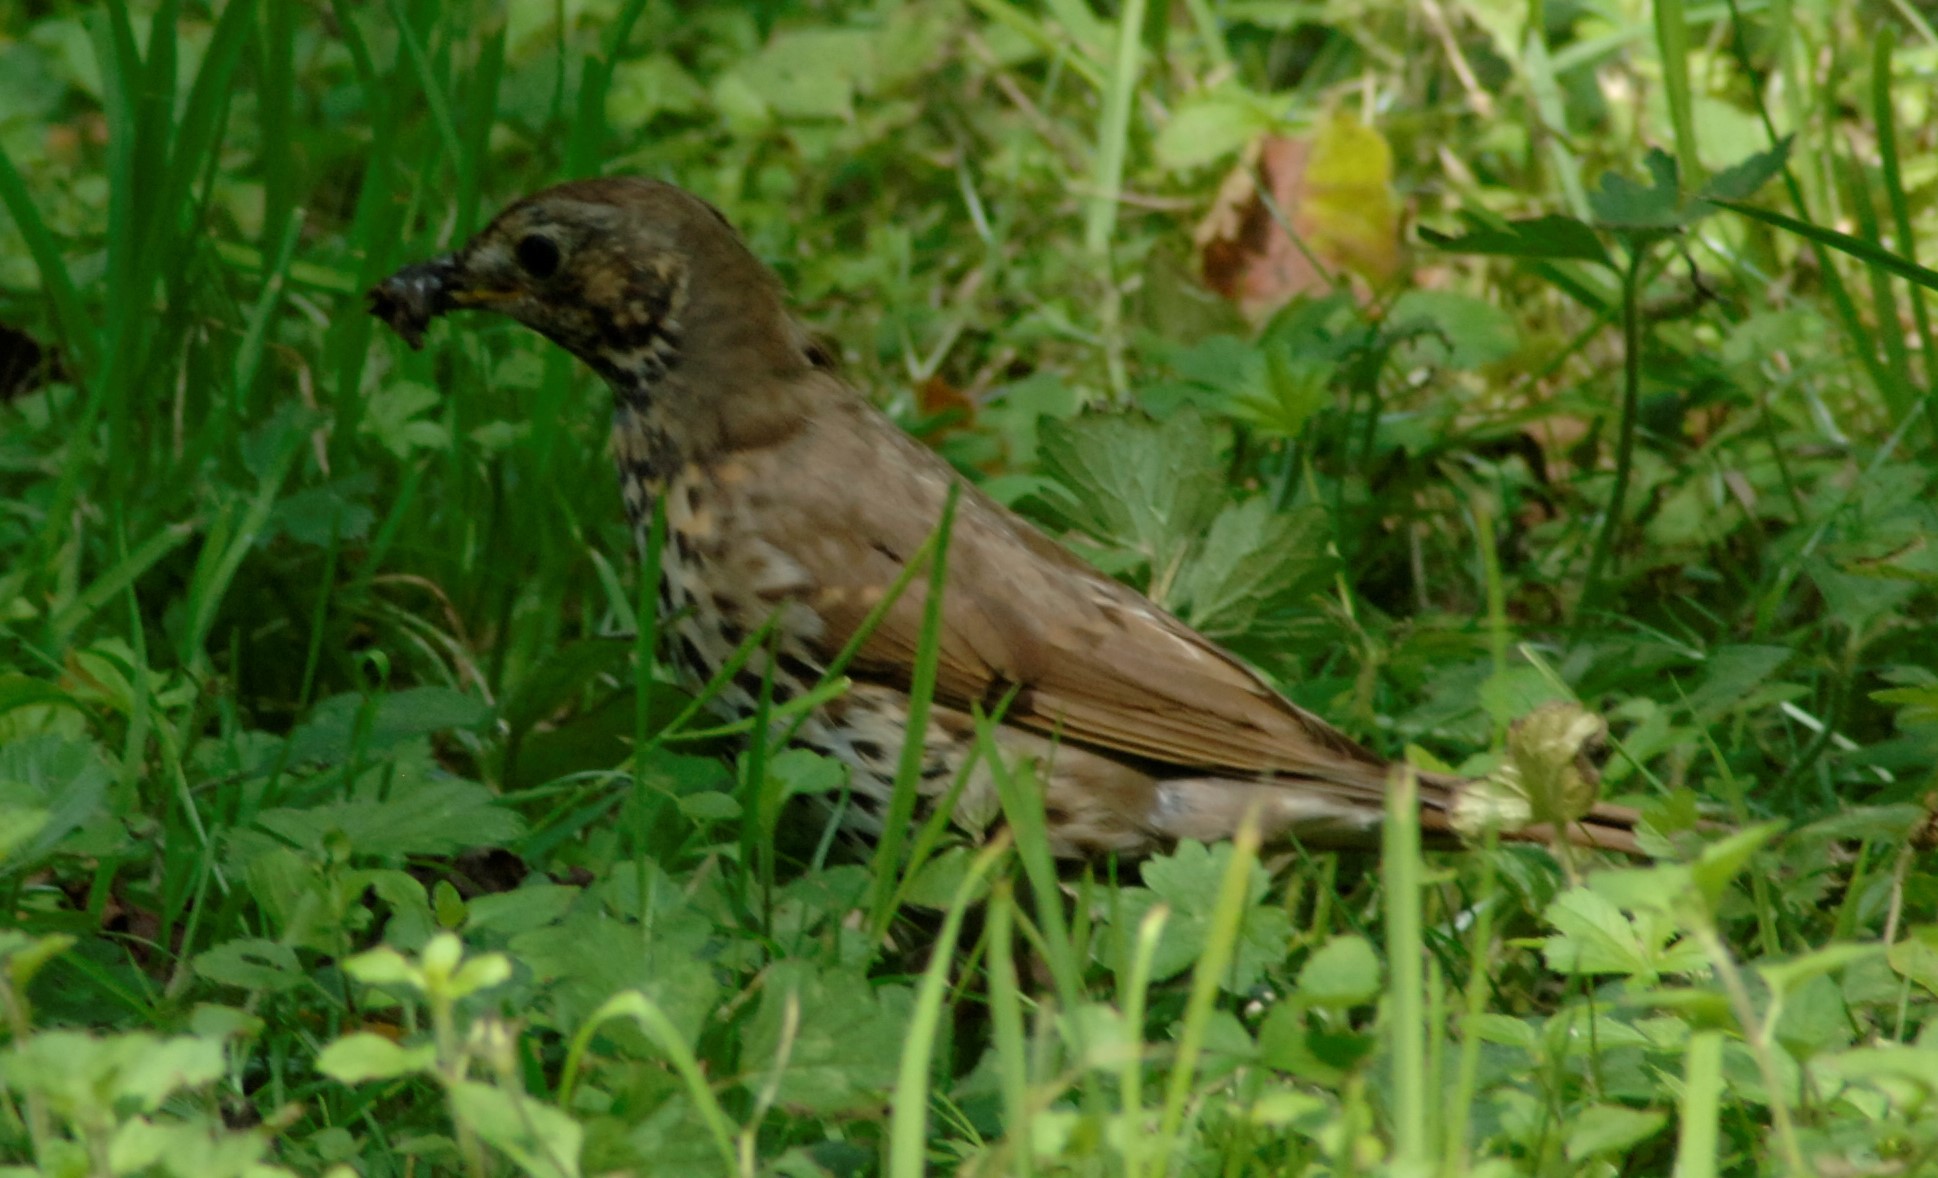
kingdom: Animalia
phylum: Chordata
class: Aves
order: Passeriformes
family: Turdidae
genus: Turdus
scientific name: Turdus philomelos
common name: Song thrush
